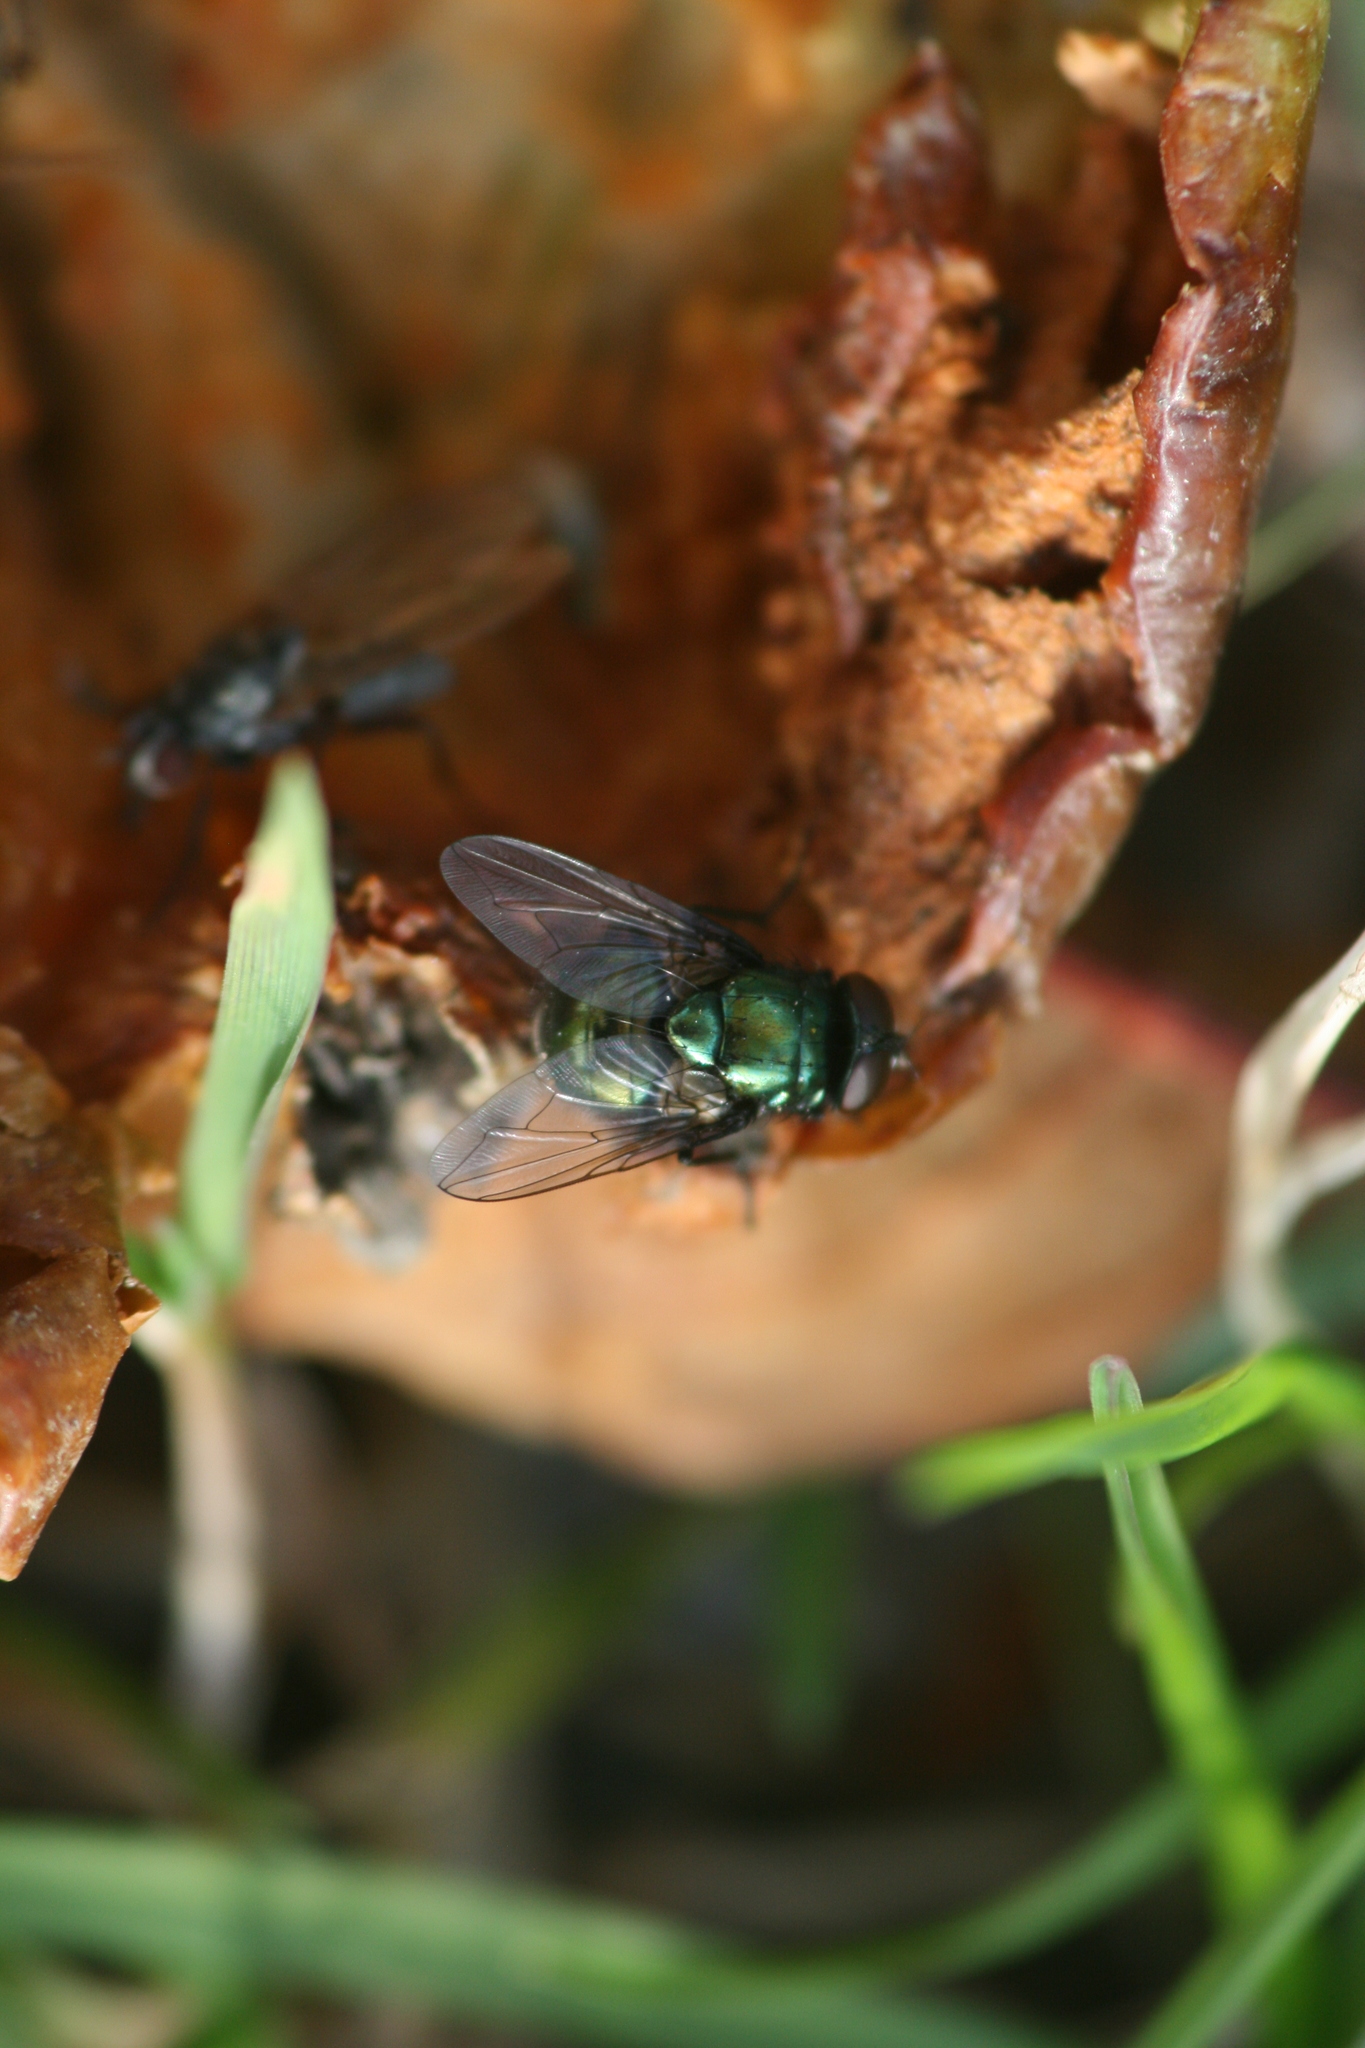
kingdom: Animalia
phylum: Arthropoda
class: Insecta
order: Diptera
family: Muscidae
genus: Neomyia
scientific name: Neomyia cornicina
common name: House fly
